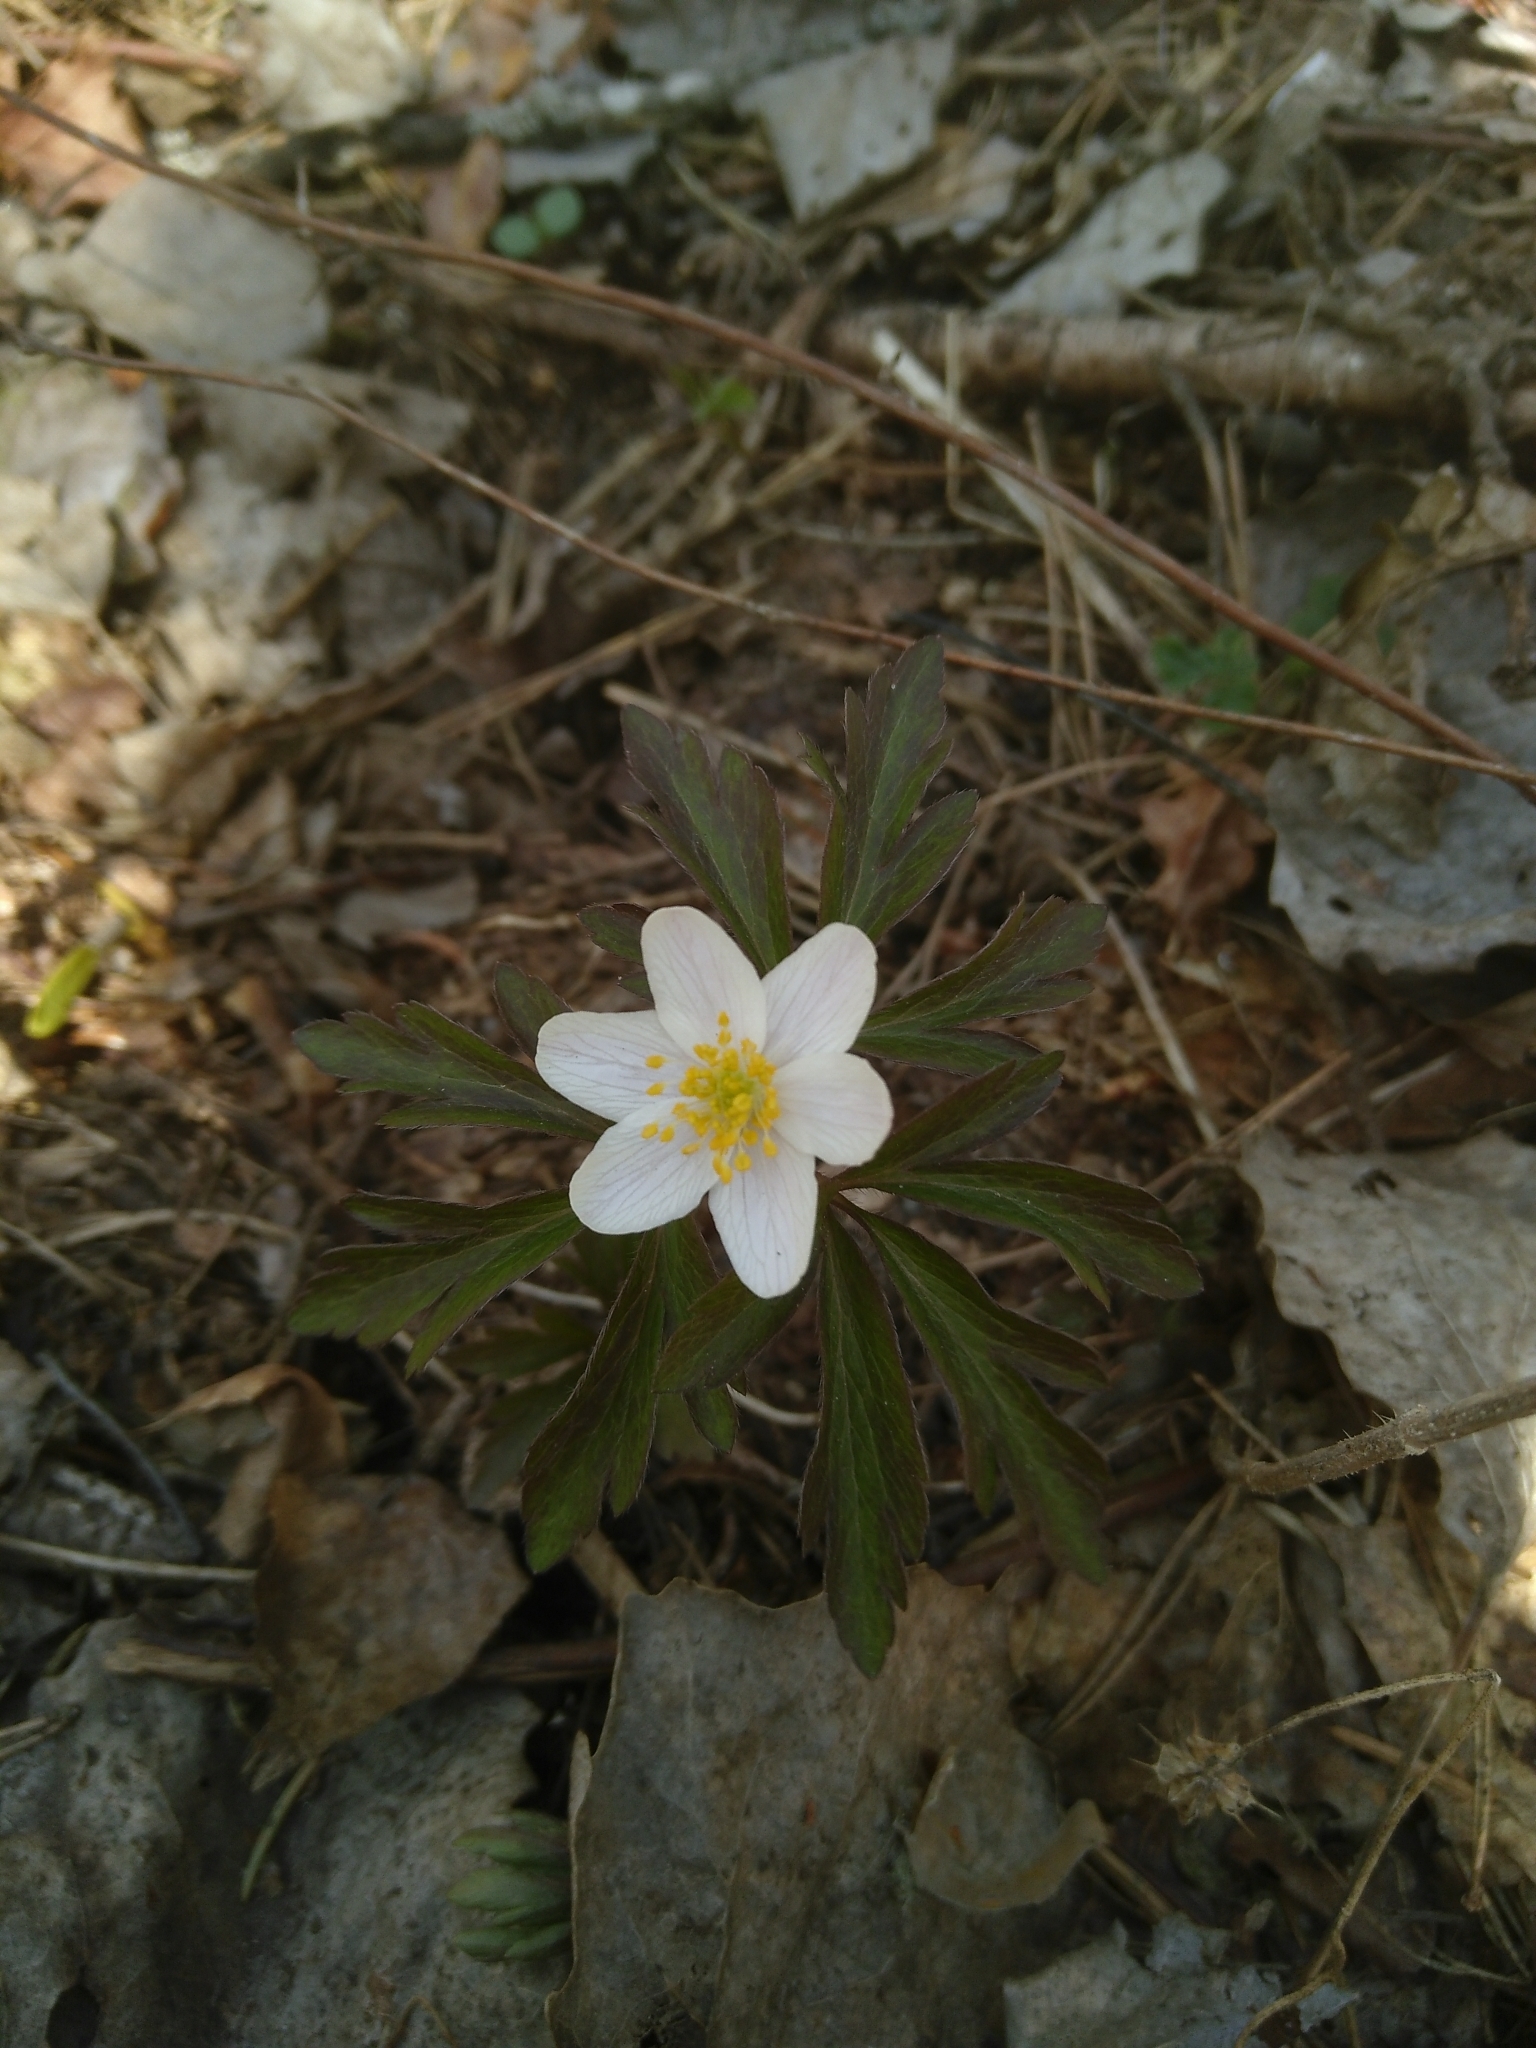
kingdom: Plantae
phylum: Tracheophyta
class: Magnoliopsida
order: Ranunculales
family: Ranunculaceae
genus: Anemone
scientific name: Anemone nemorosa
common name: Wood anemone
